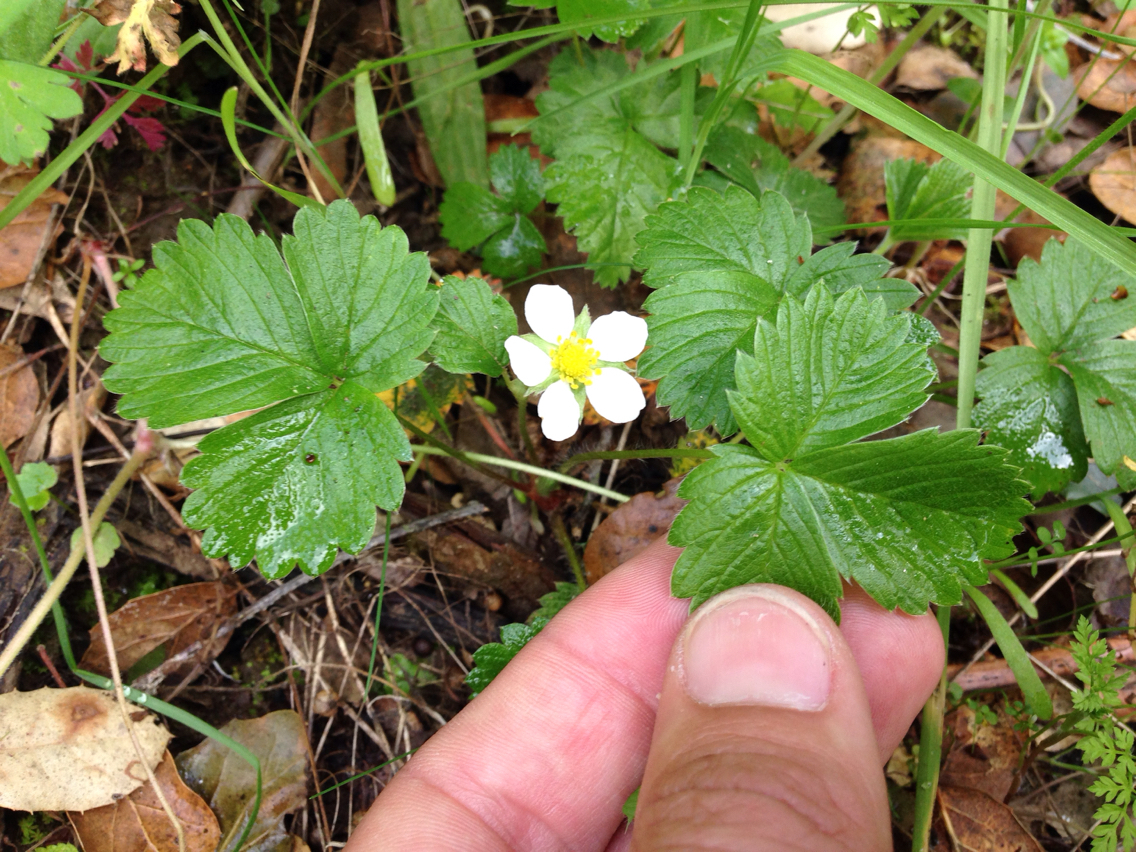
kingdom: Plantae
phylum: Tracheophyta
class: Magnoliopsida
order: Rosales
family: Rosaceae
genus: Fragaria
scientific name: Fragaria vesca
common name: Wild strawberry
